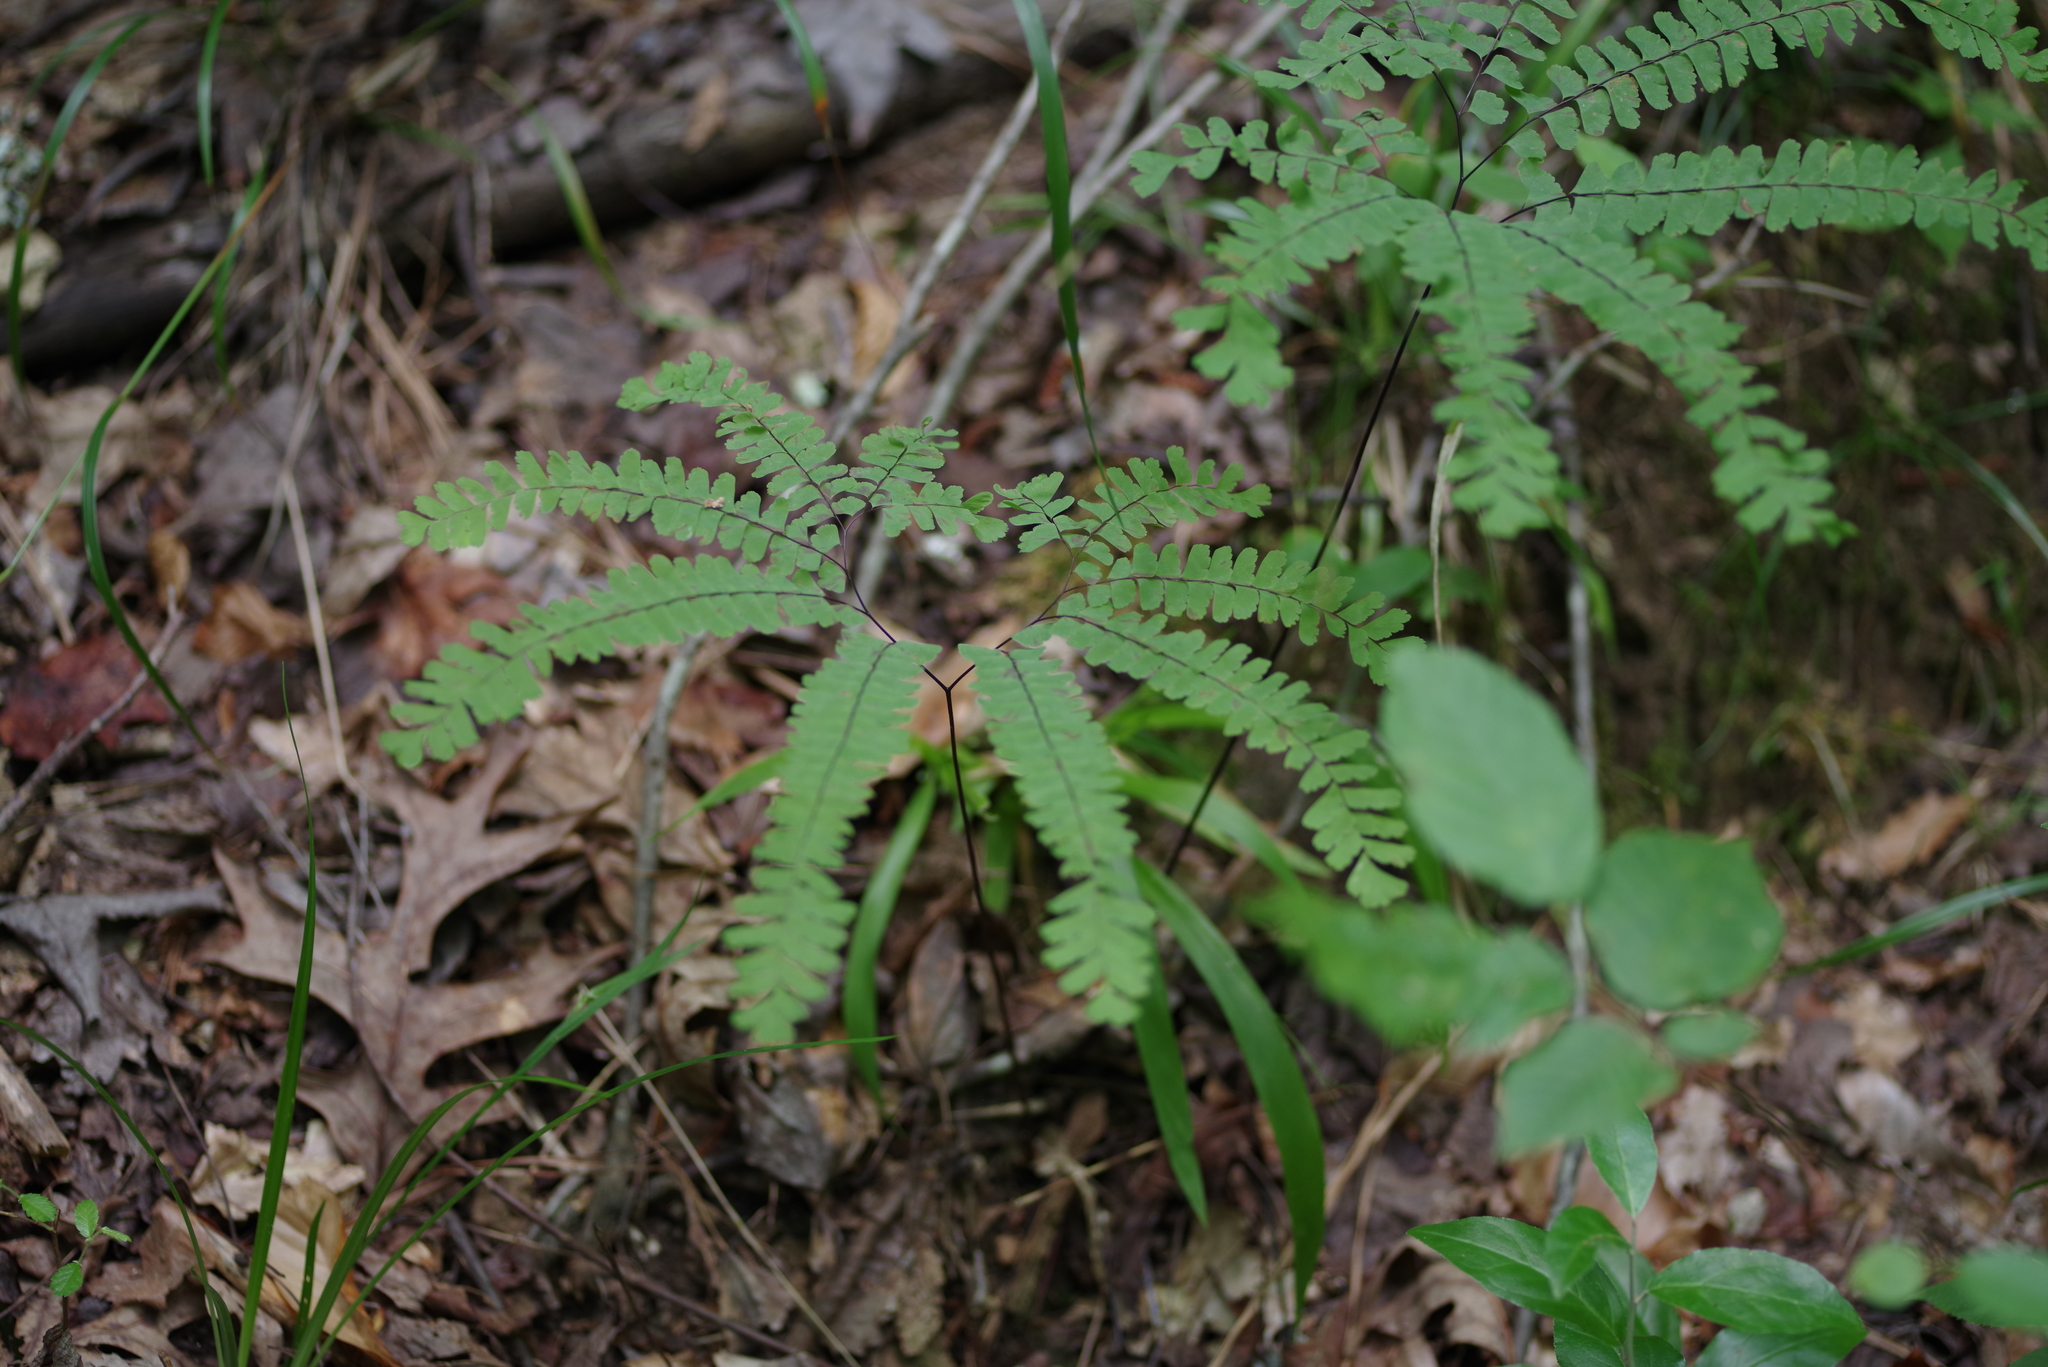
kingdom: Plantae
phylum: Tracheophyta
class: Polypodiopsida
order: Polypodiales
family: Pteridaceae
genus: Adiantum
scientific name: Adiantum pedatum
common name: Five-finger fern
